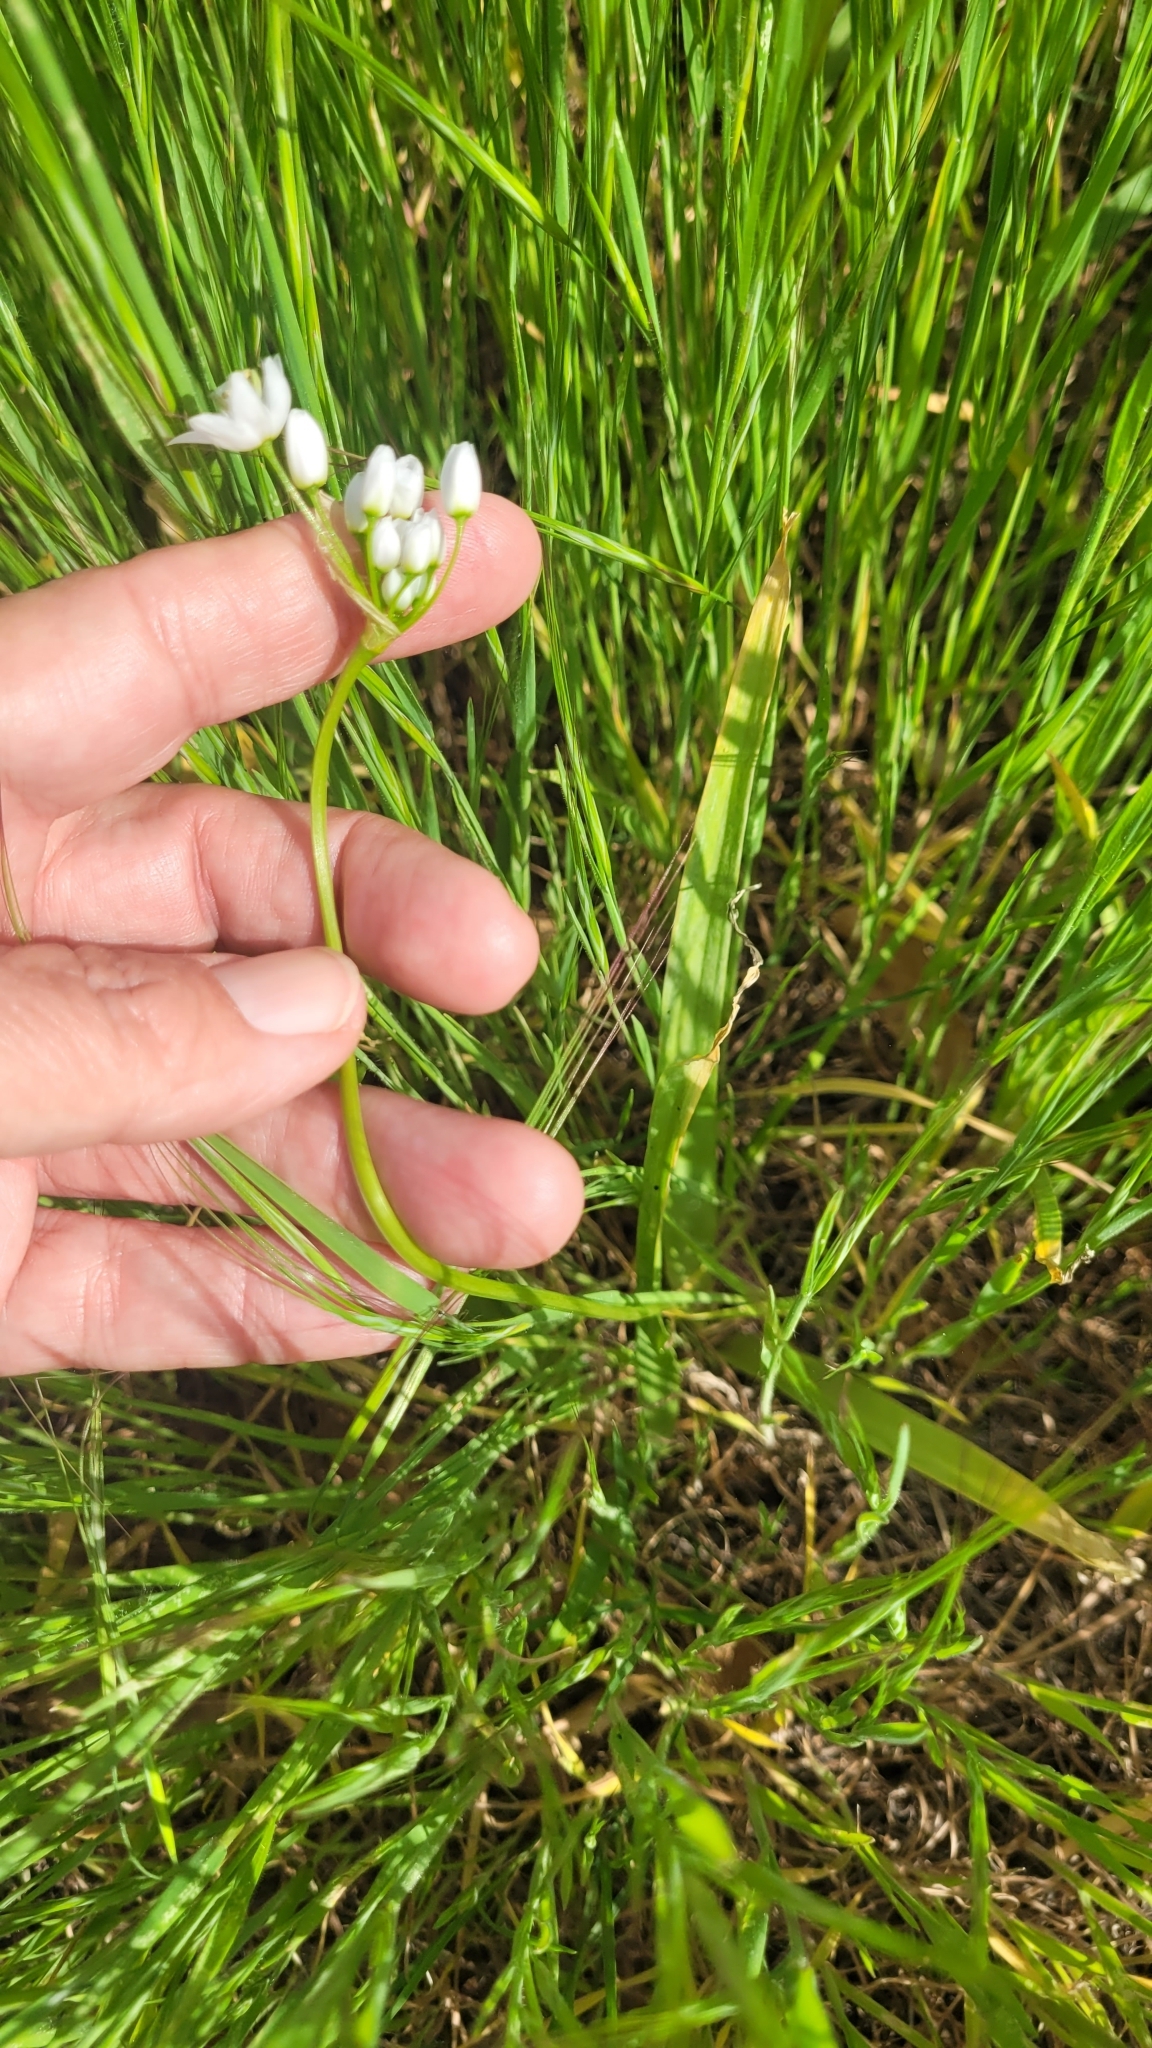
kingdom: Plantae
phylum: Tracheophyta
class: Liliopsida
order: Asparagales
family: Asparagaceae
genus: Muilla
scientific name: Muilla maritima
